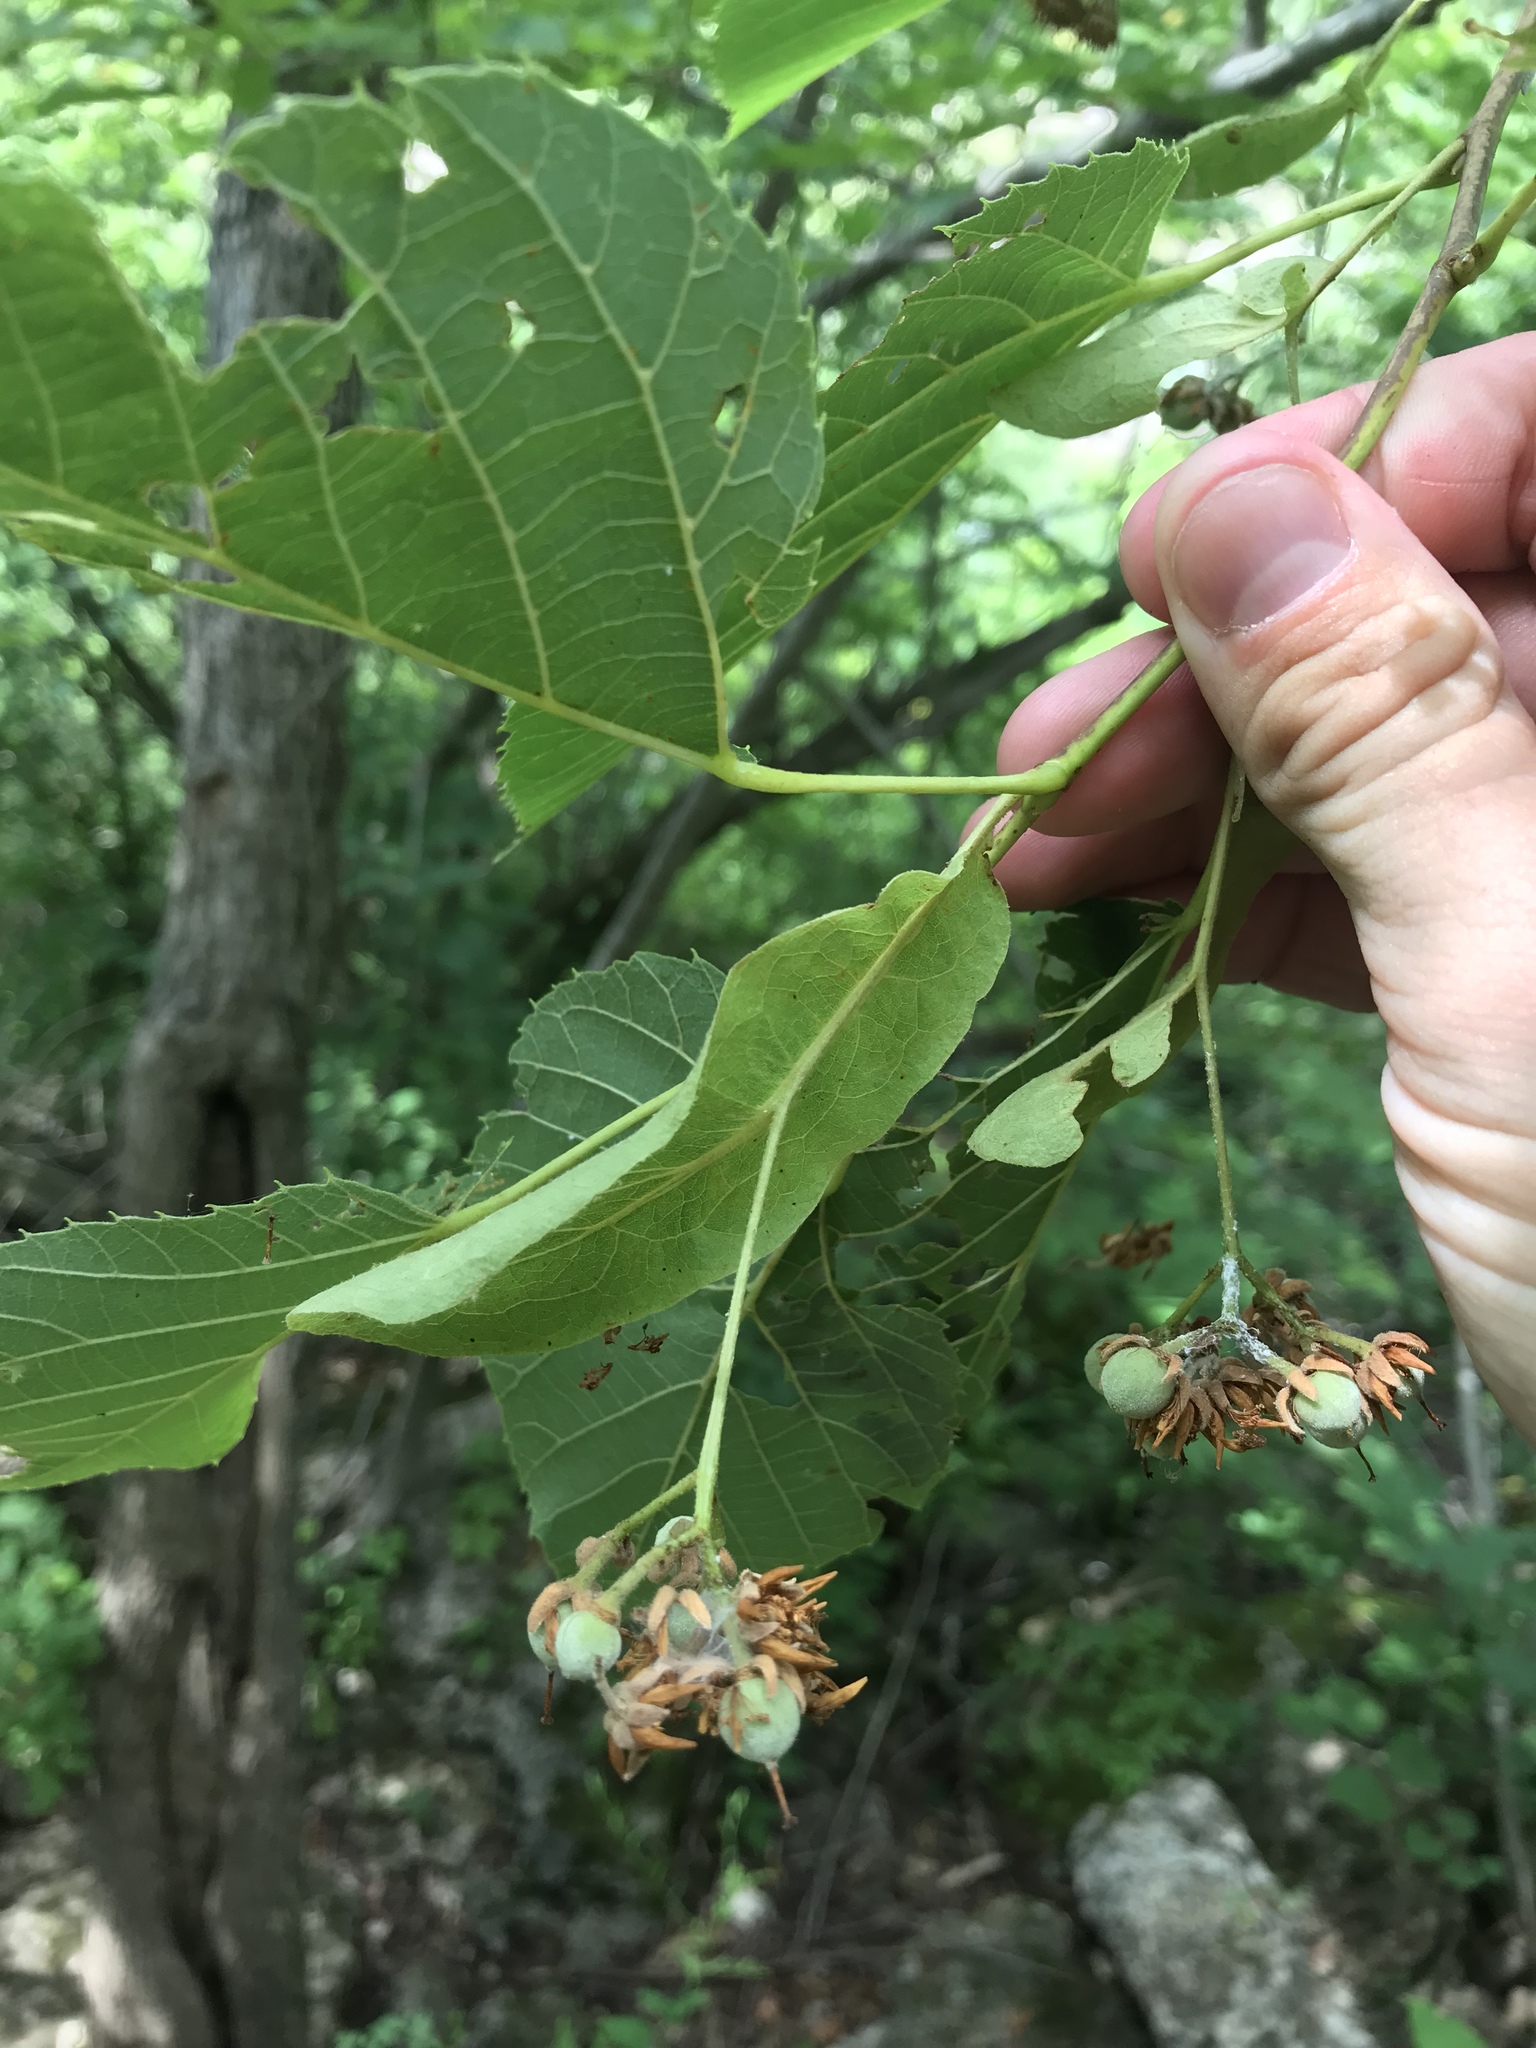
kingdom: Plantae
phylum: Tracheophyta
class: Magnoliopsida
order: Malvales
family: Malvaceae
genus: Tilia
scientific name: Tilia americana
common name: Basswood
